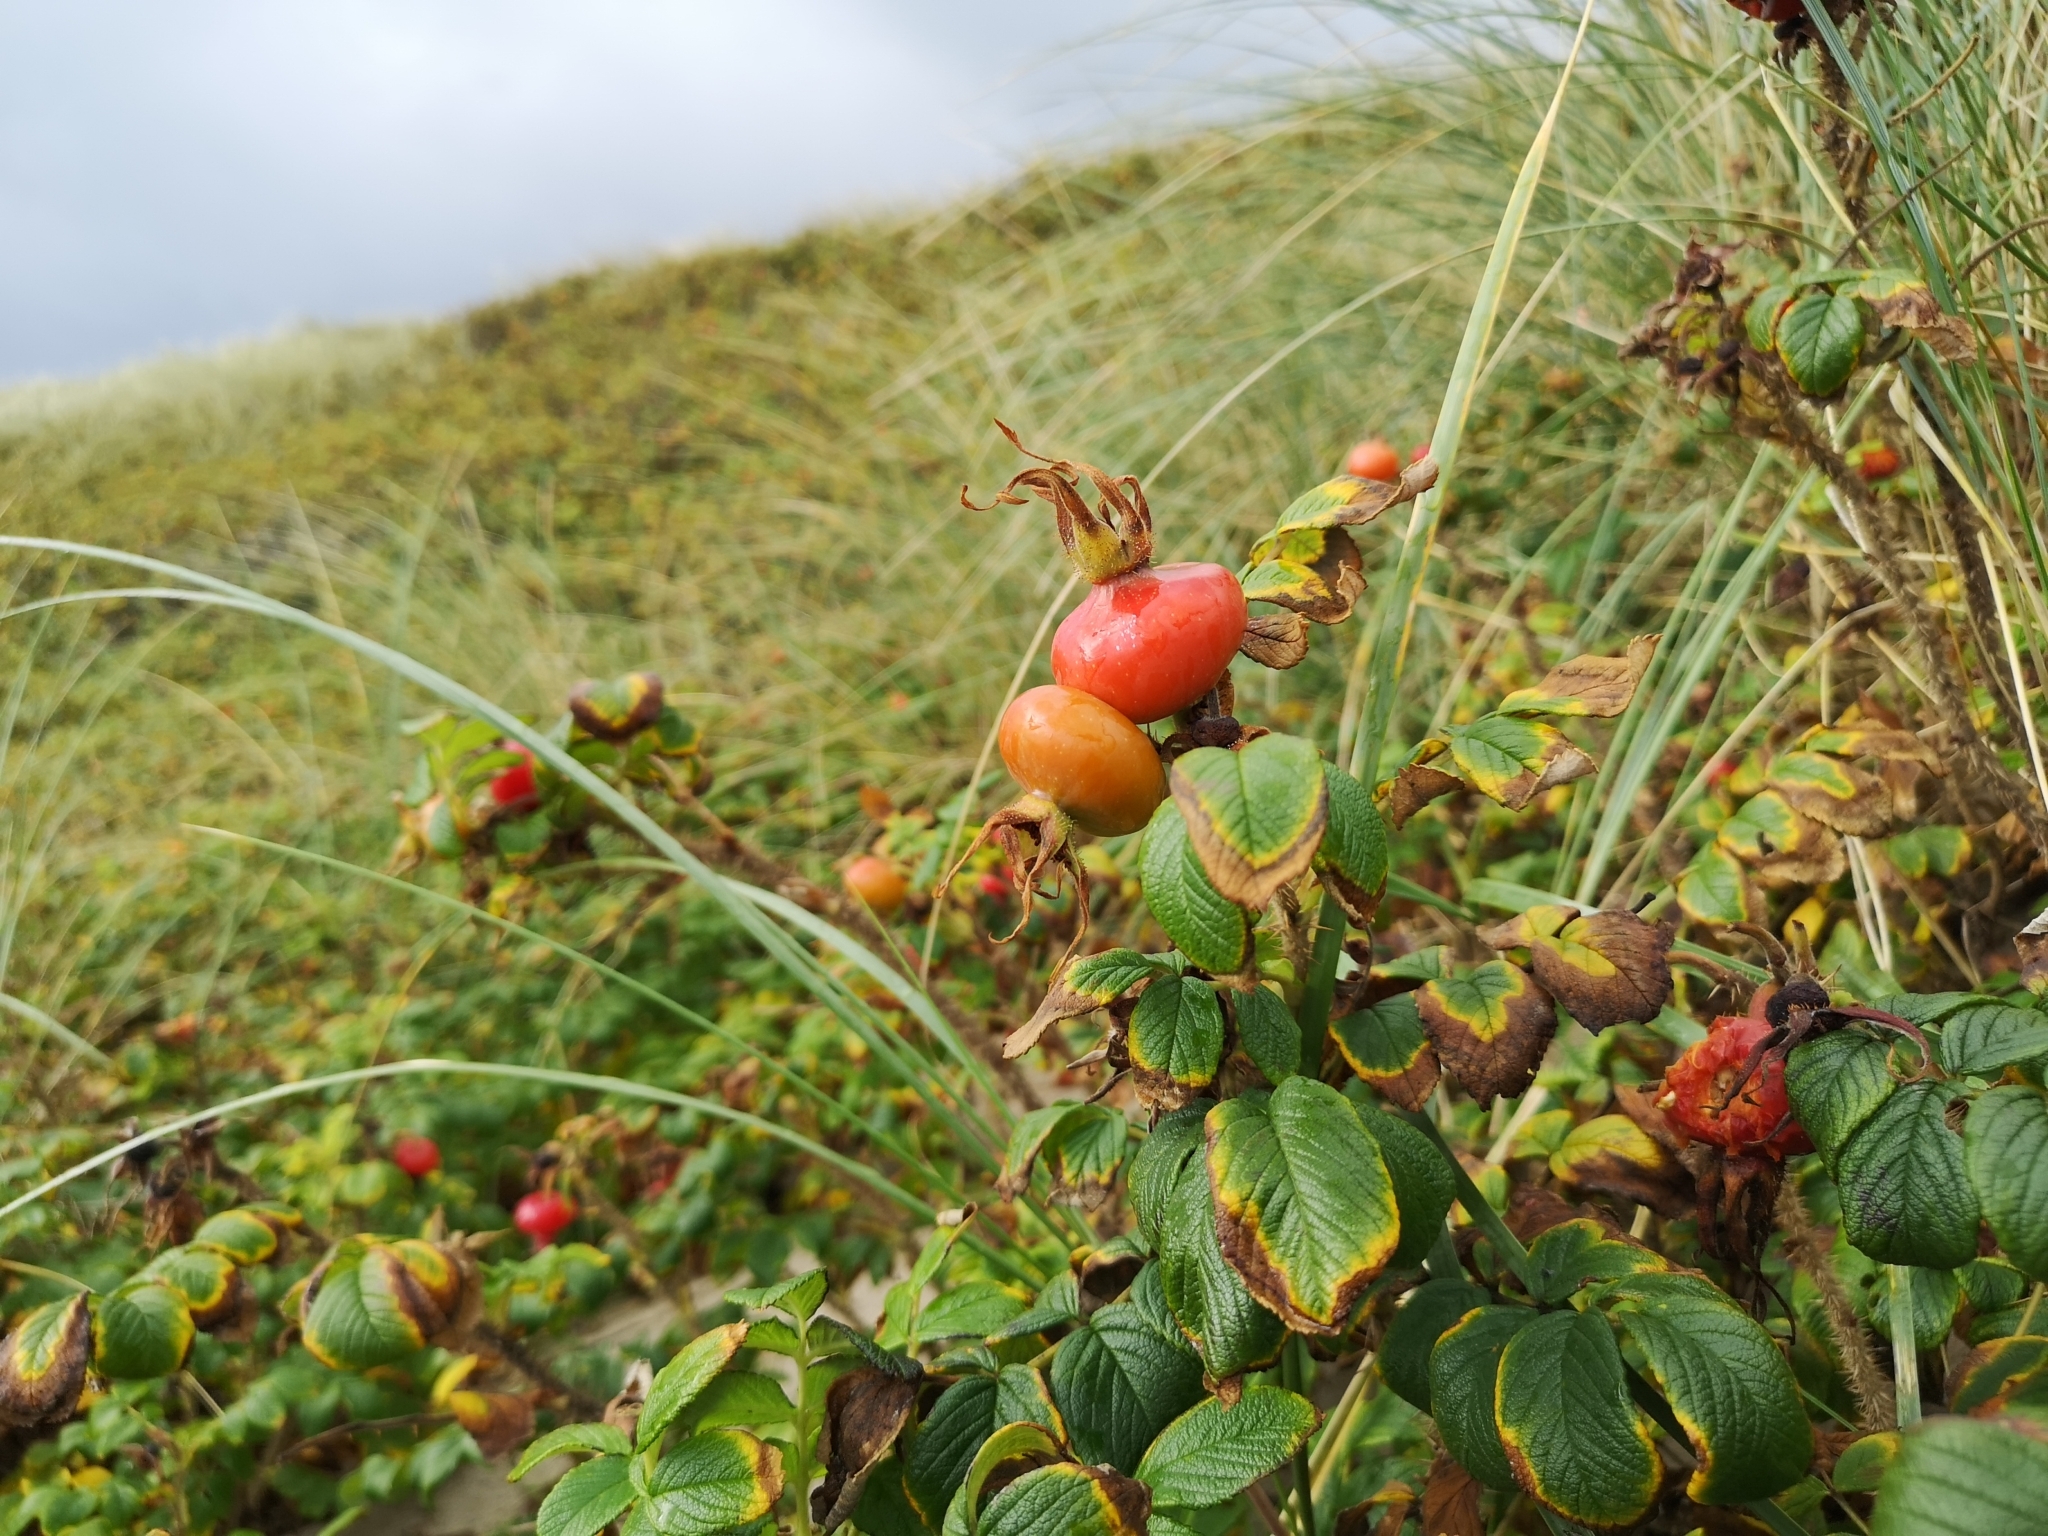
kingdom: Plantae
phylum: Tracheophyta
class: Magnoliopsida
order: Rosales
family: Rosaceae
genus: Rosa
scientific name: Rosa rugosa
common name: Japanese rose
